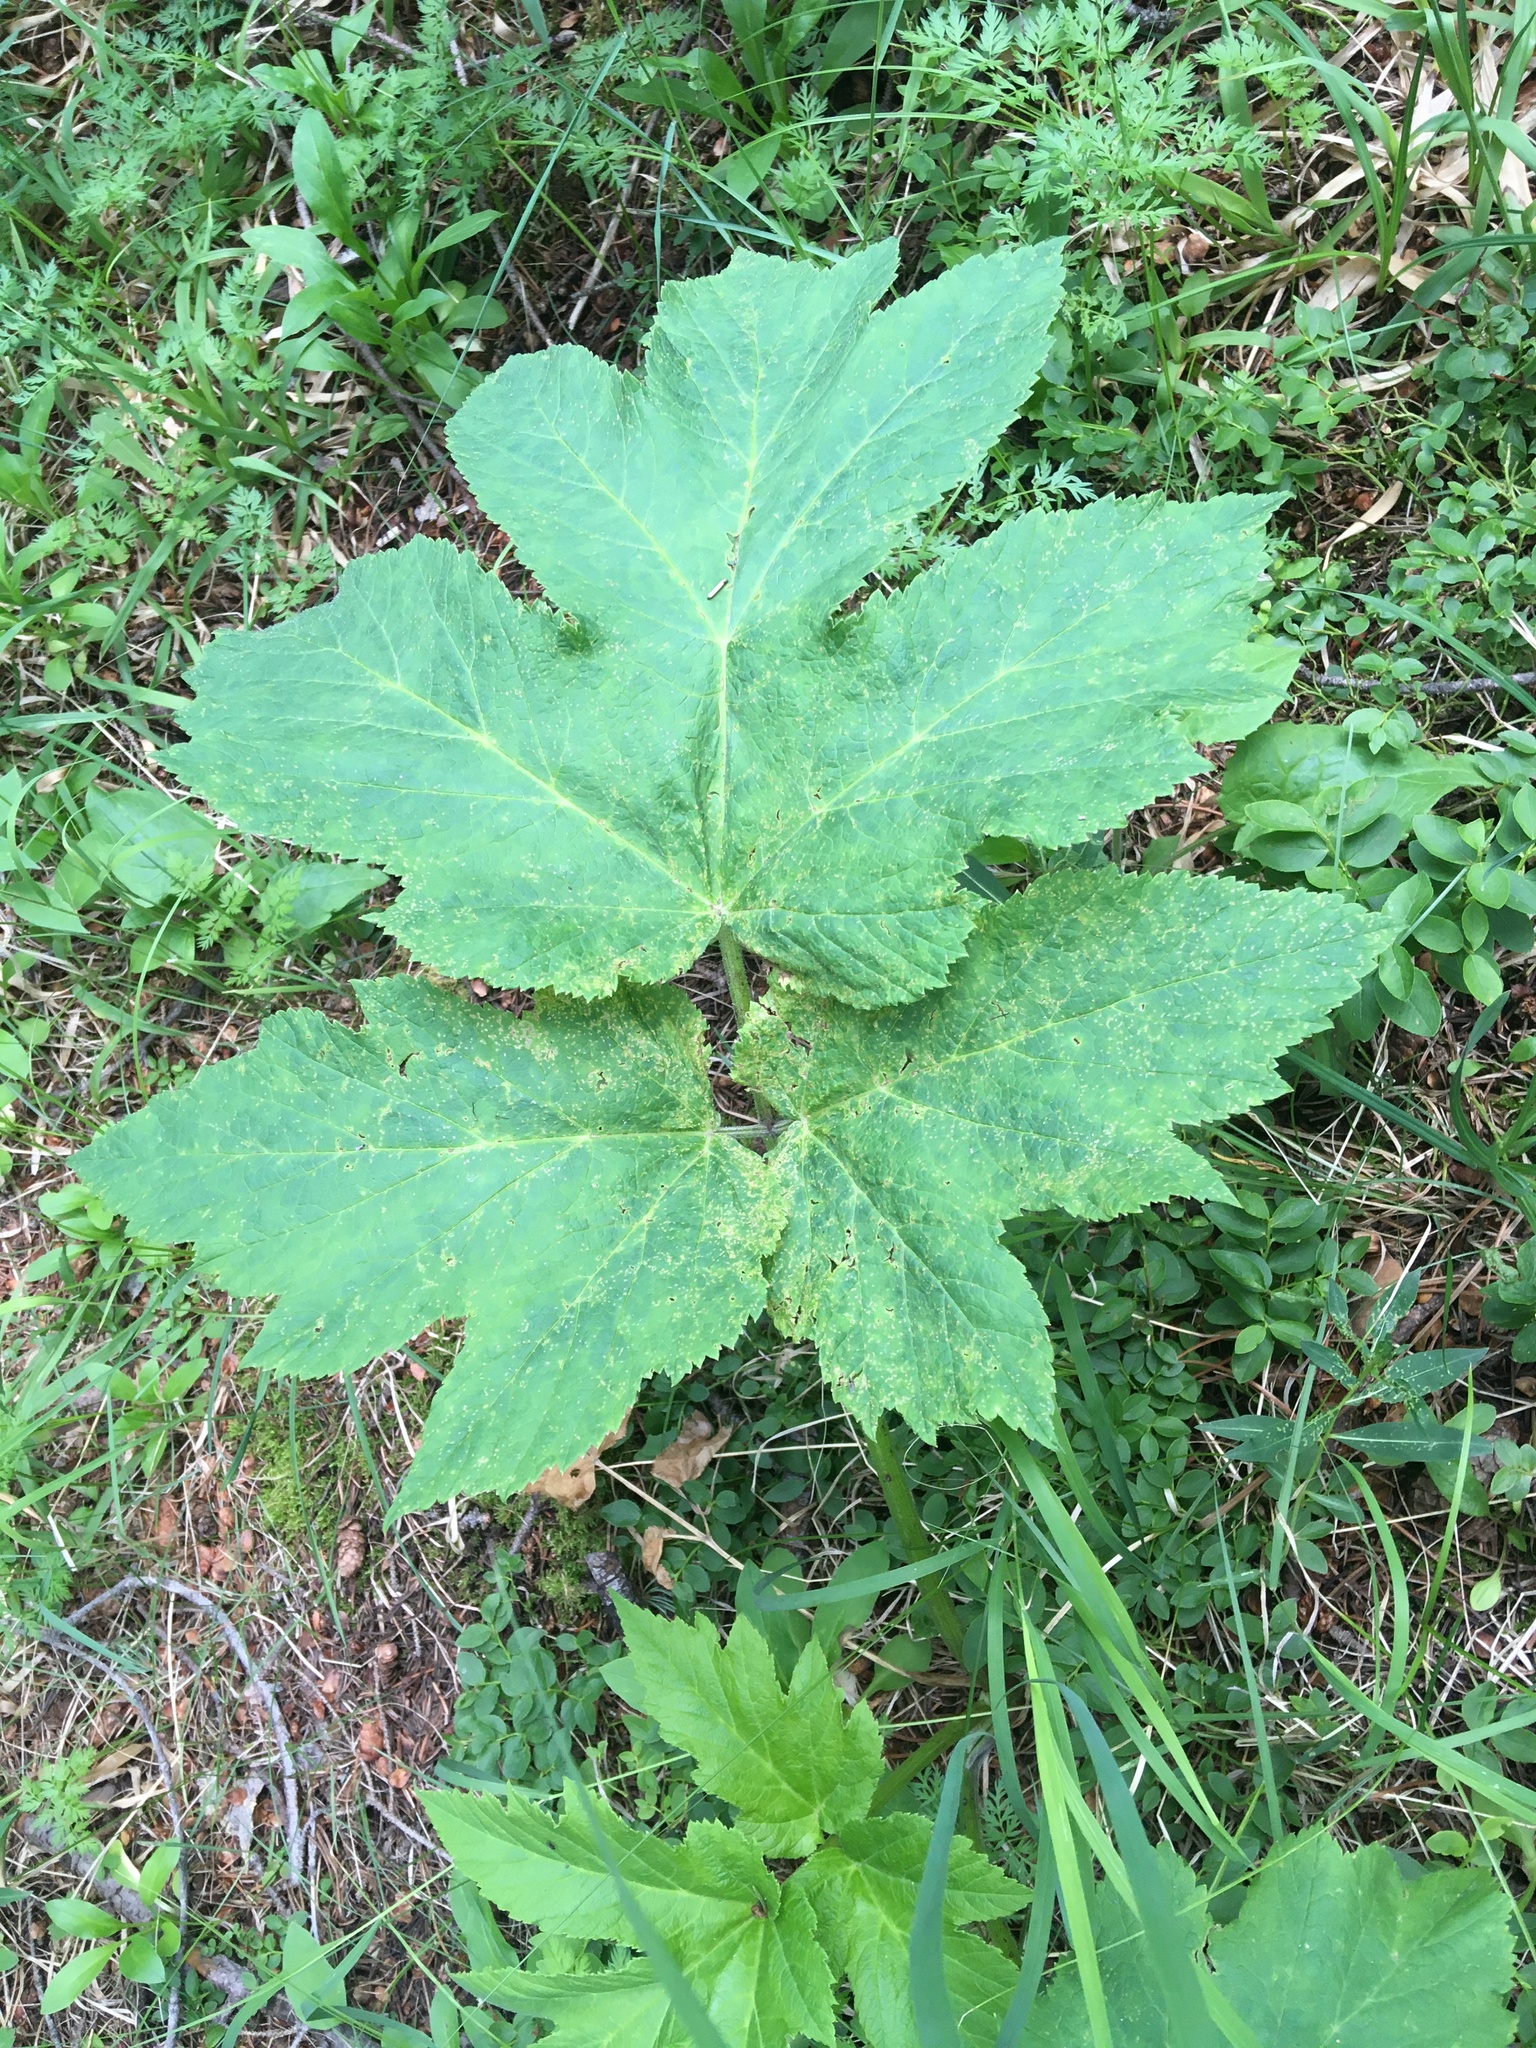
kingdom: Plantae
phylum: Tracheophyta
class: Magnoliopsida
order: Apiales
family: Apiaceae
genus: Heracleum
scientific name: Heracleum maximum
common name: American cow parsnip
